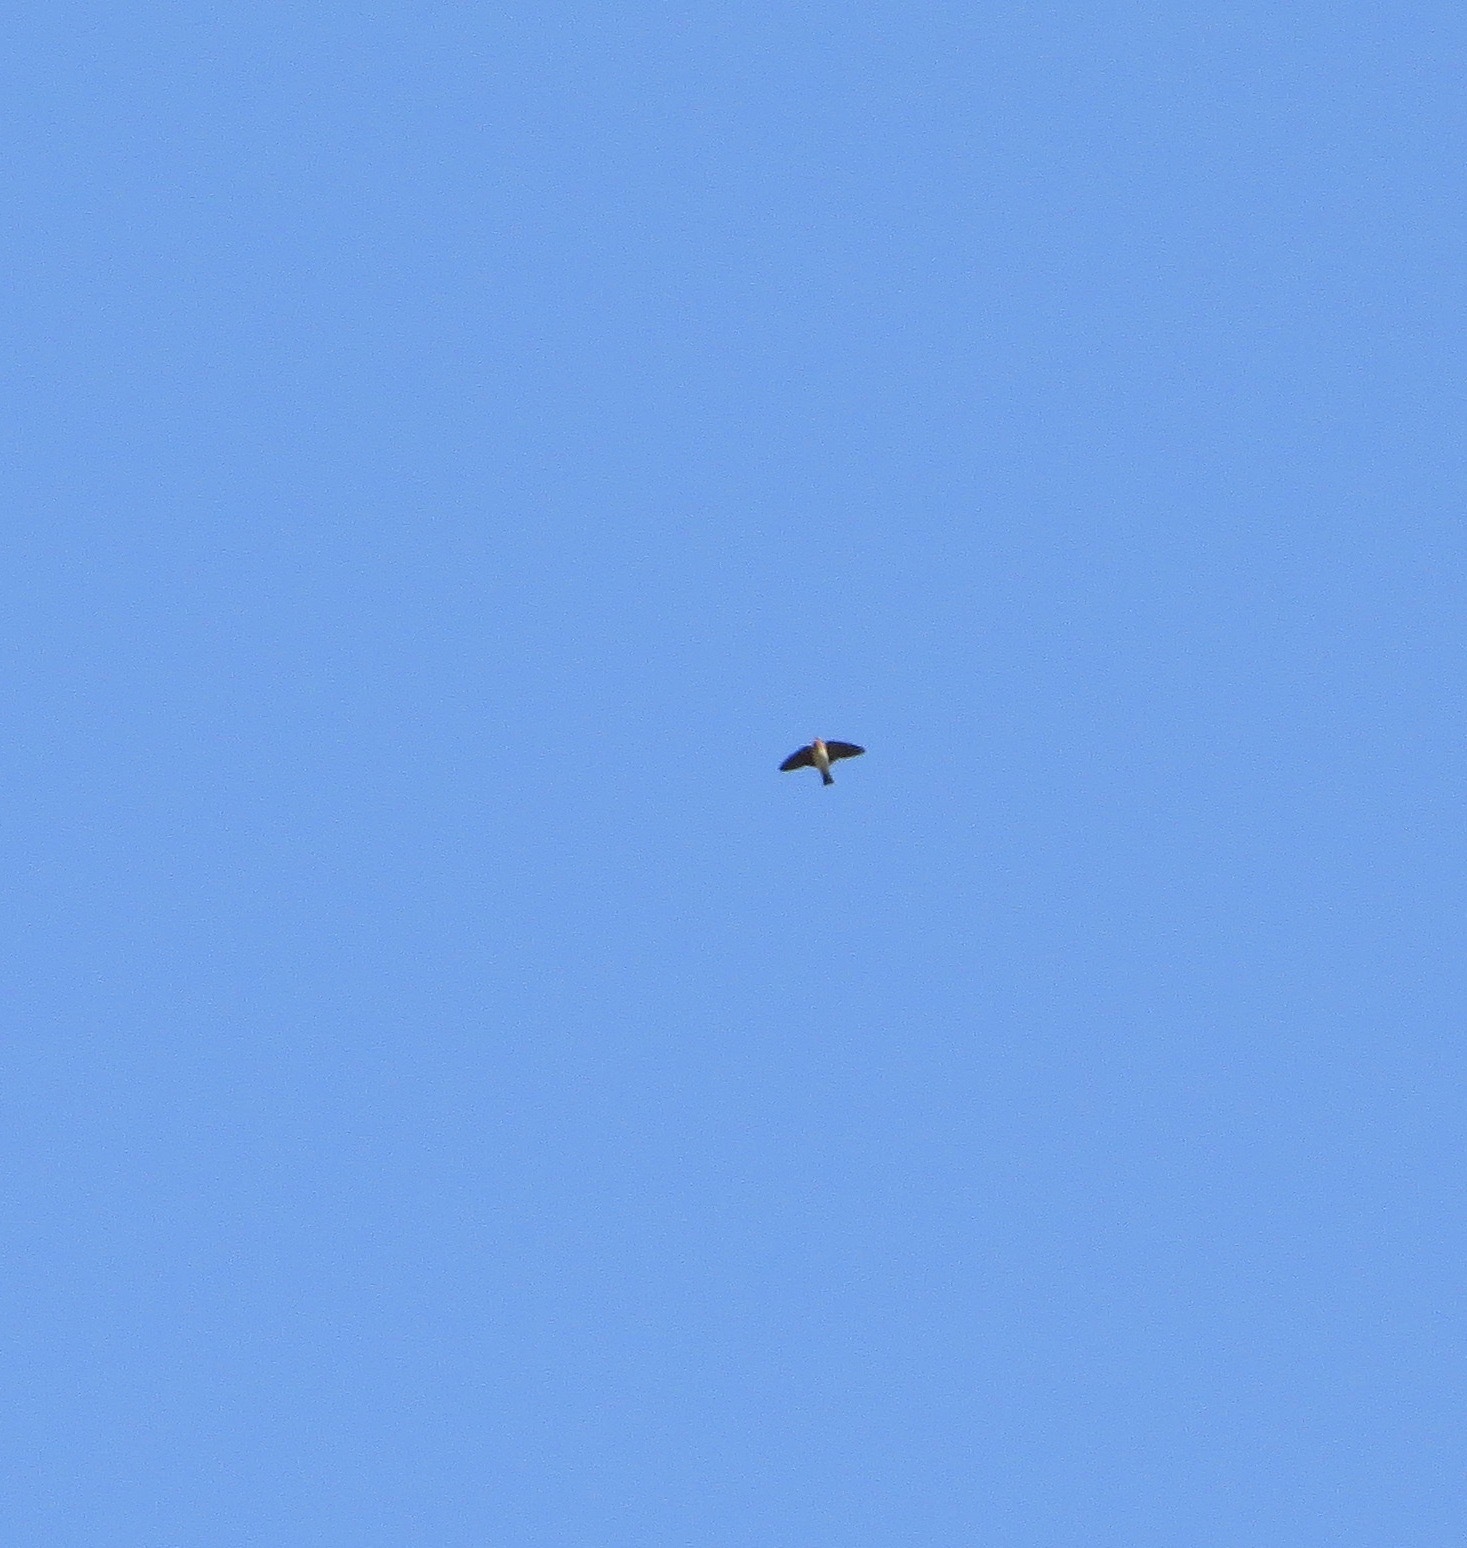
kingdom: Animalia
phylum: Chordata
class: Aves
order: Passeriformes
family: Hirundinidae
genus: Petrochelidon
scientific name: Petrochelidon pyrrhonota
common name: American cliff swallow
